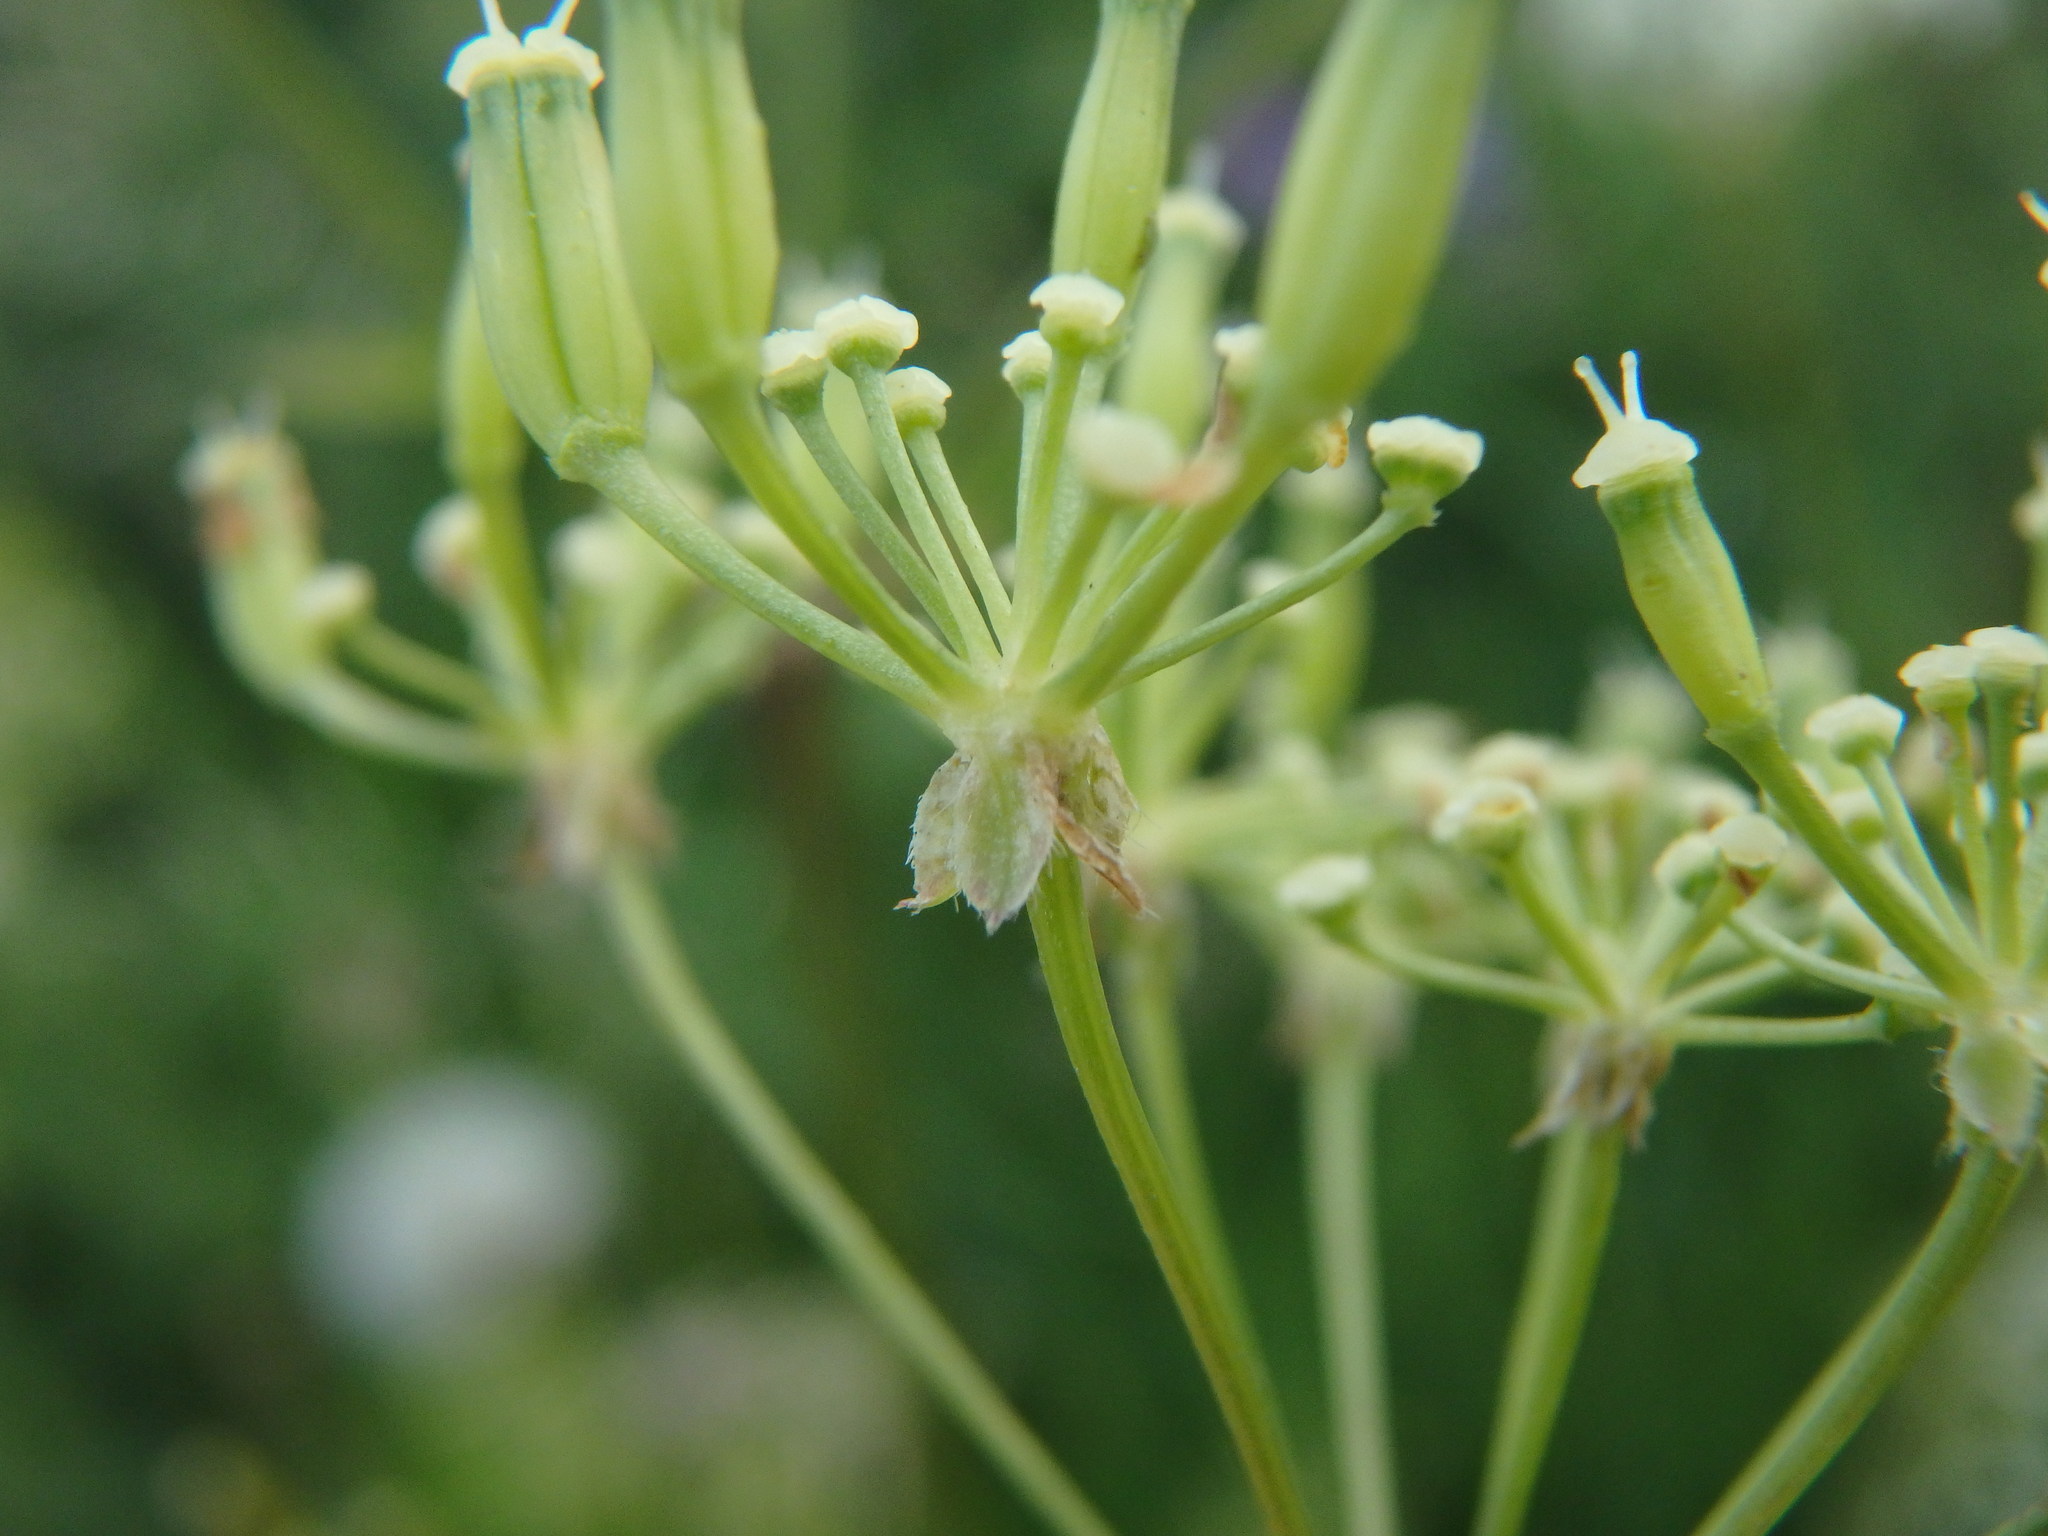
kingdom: Plantae
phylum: Tracheophyta
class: Magnoliopsida
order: Apiales
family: Apiaceae
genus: Anthriscus
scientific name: Anthriscus sylvestris
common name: Cow parsley
